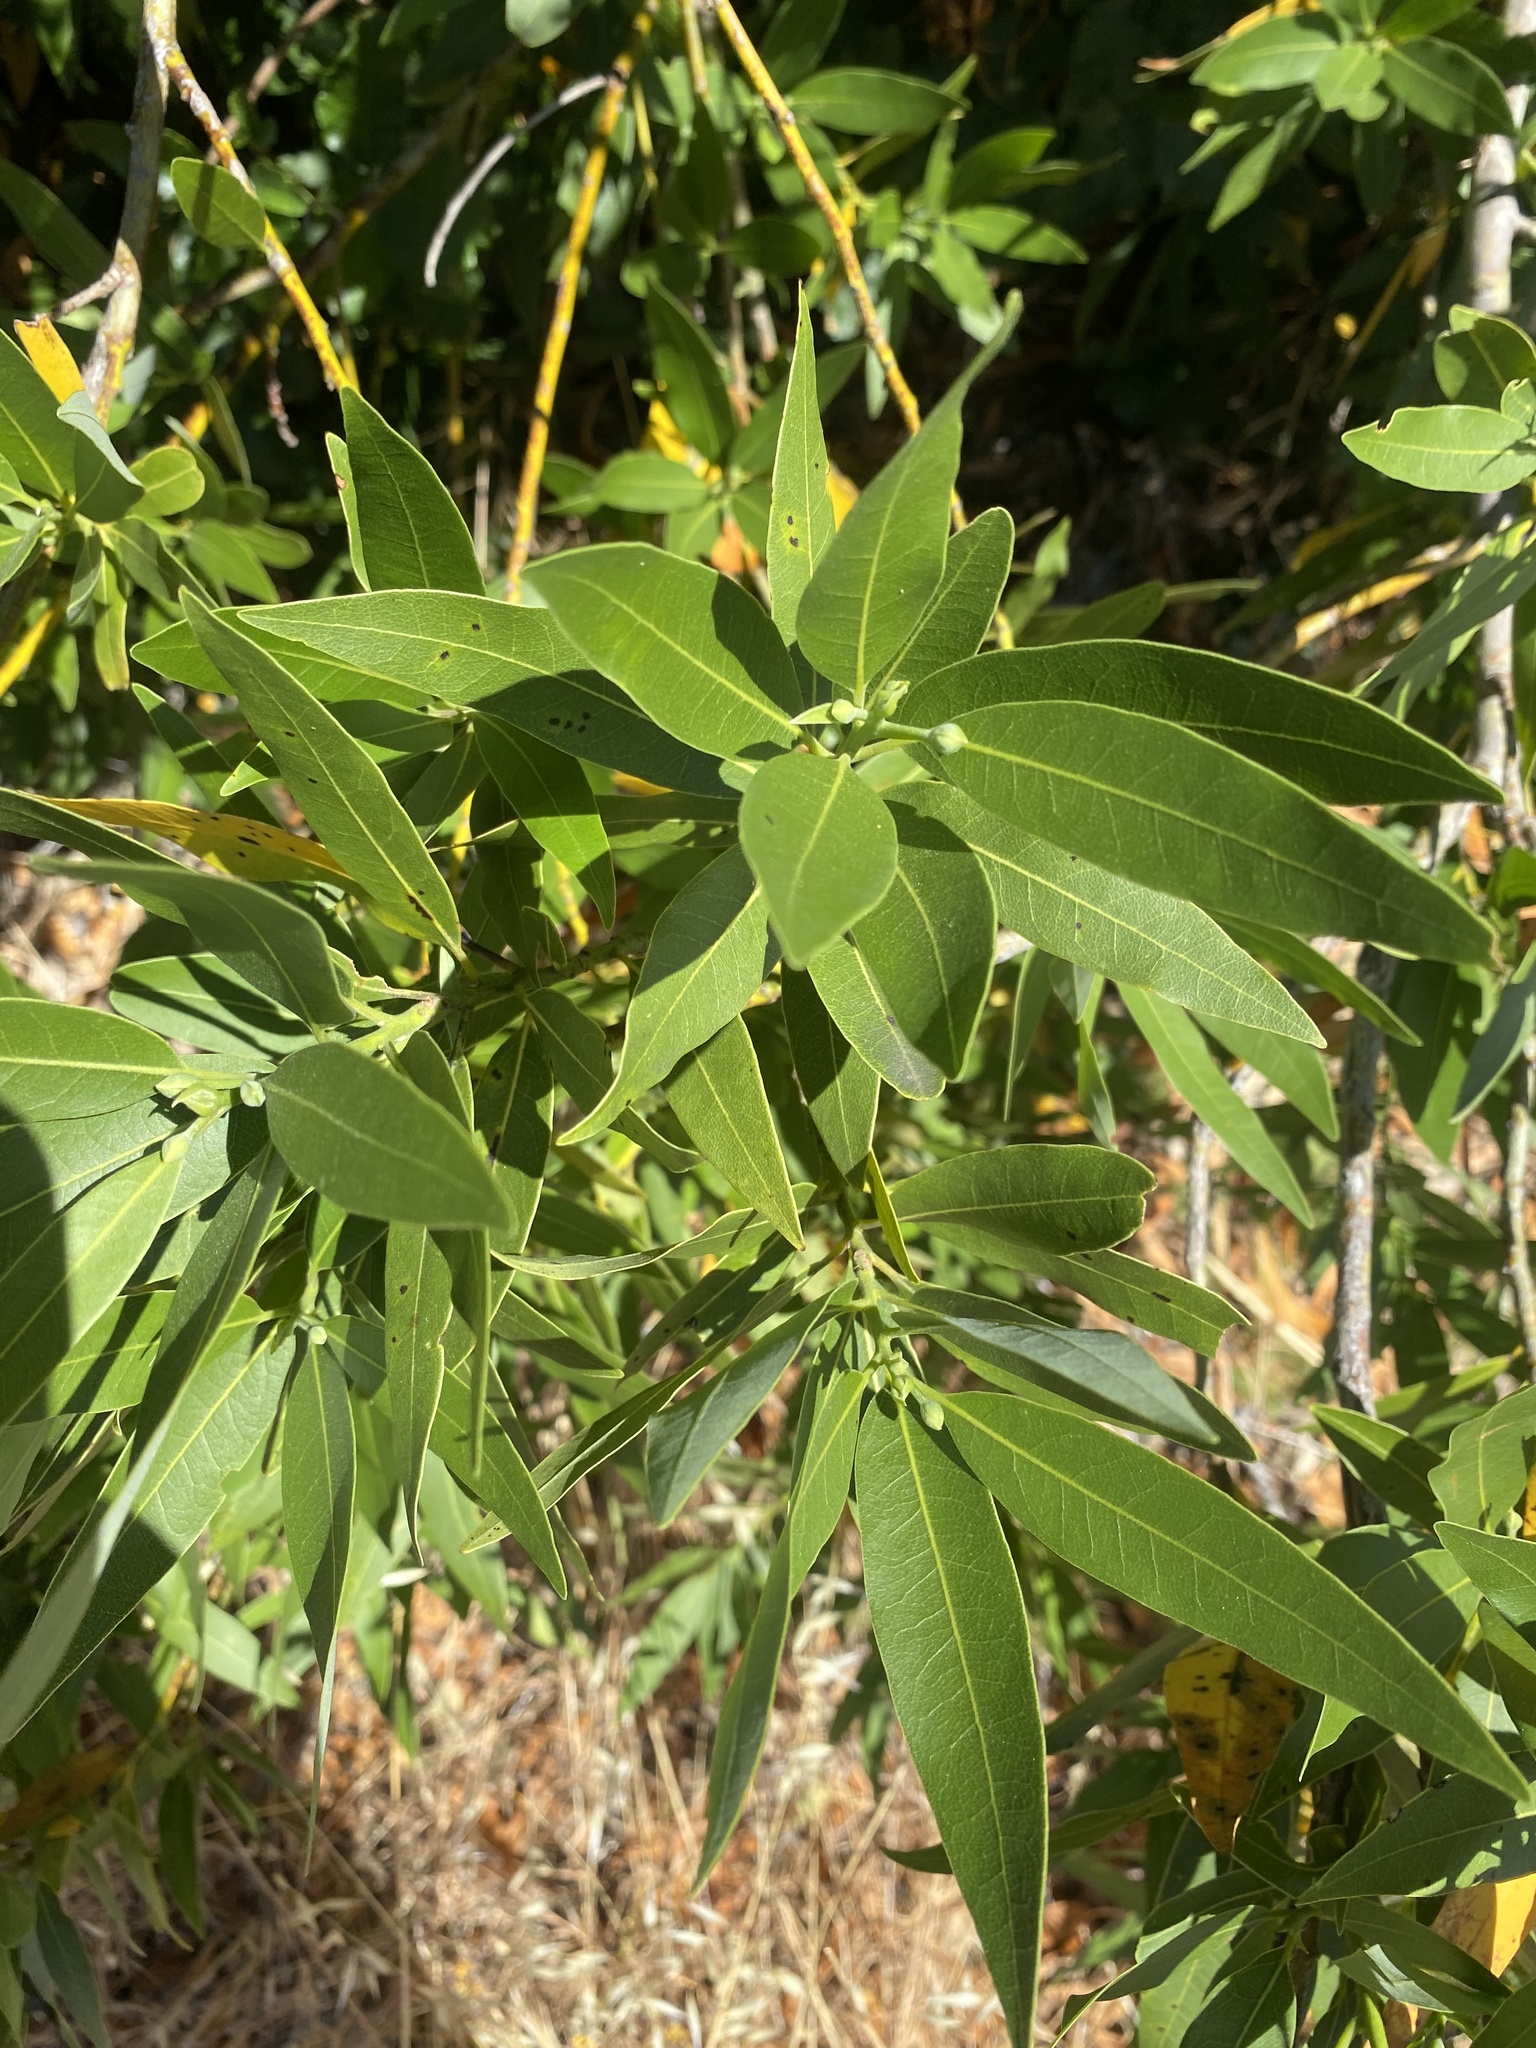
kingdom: Plantae
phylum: Tracheophyta
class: Magnoliopsida
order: Laurales
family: Lauraceae
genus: Umbellularia
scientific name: Umbellularia californica
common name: California bay
